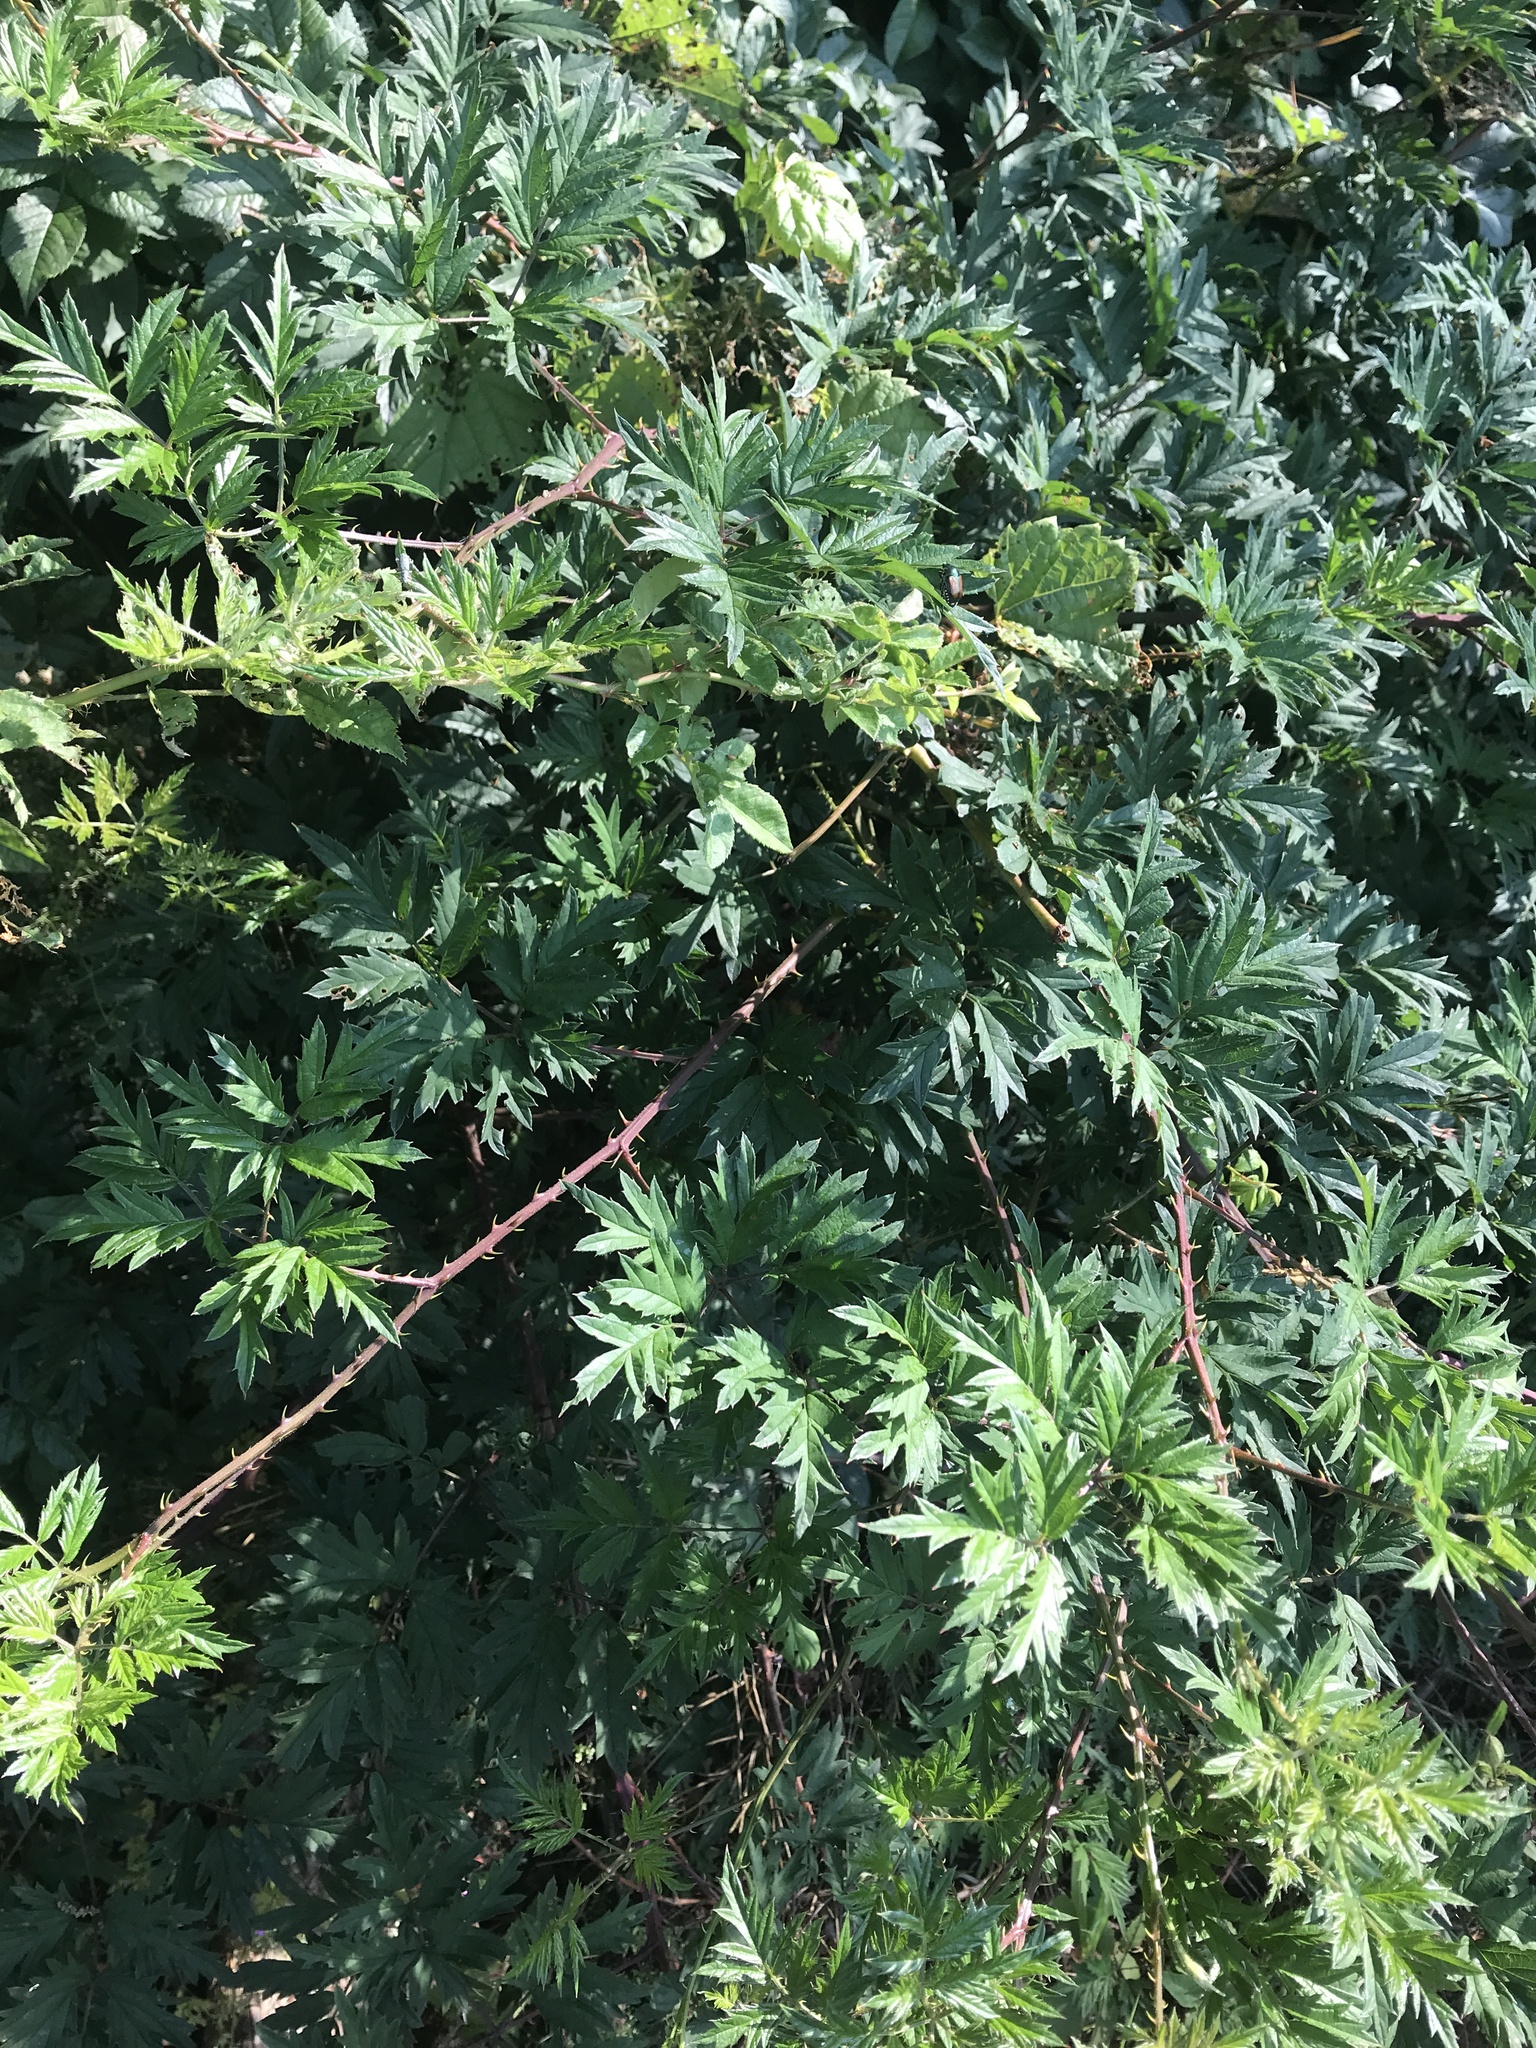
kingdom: Plantae
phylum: Tracheophyta
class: Magnoliopsida
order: Rosales
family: Rosaceae
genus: Rubus
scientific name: Rubus laciniatus
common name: Evergreen blackberry
